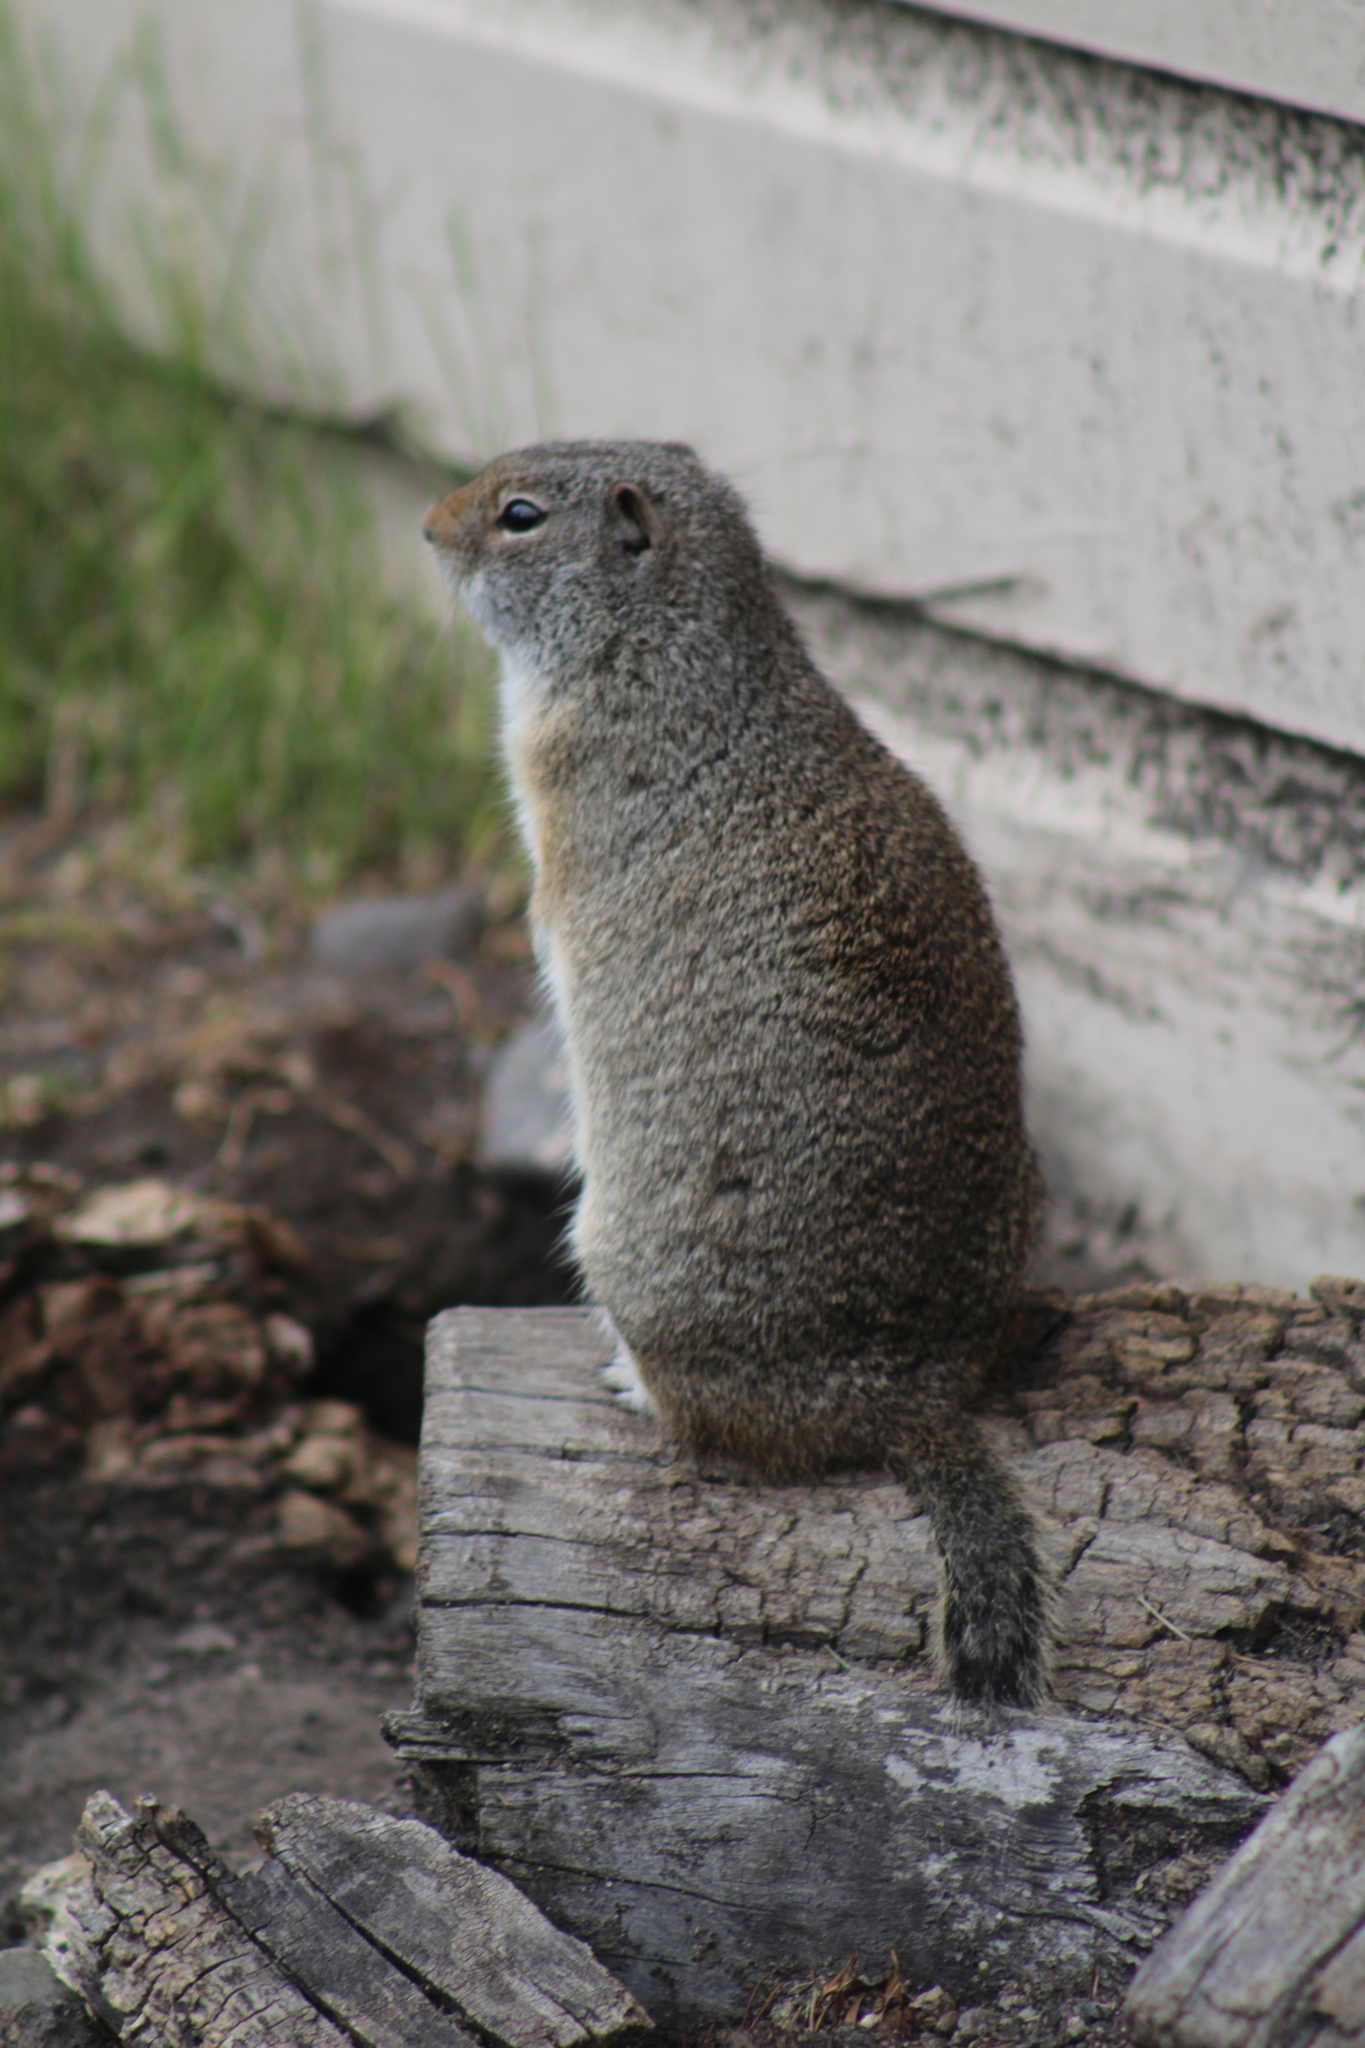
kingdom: Animalia
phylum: Chordata
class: Mammalia
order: Rodentia
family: Sciuridae
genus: Urocitellus
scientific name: Urocitellus armatus
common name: Uinta ground squirrel
